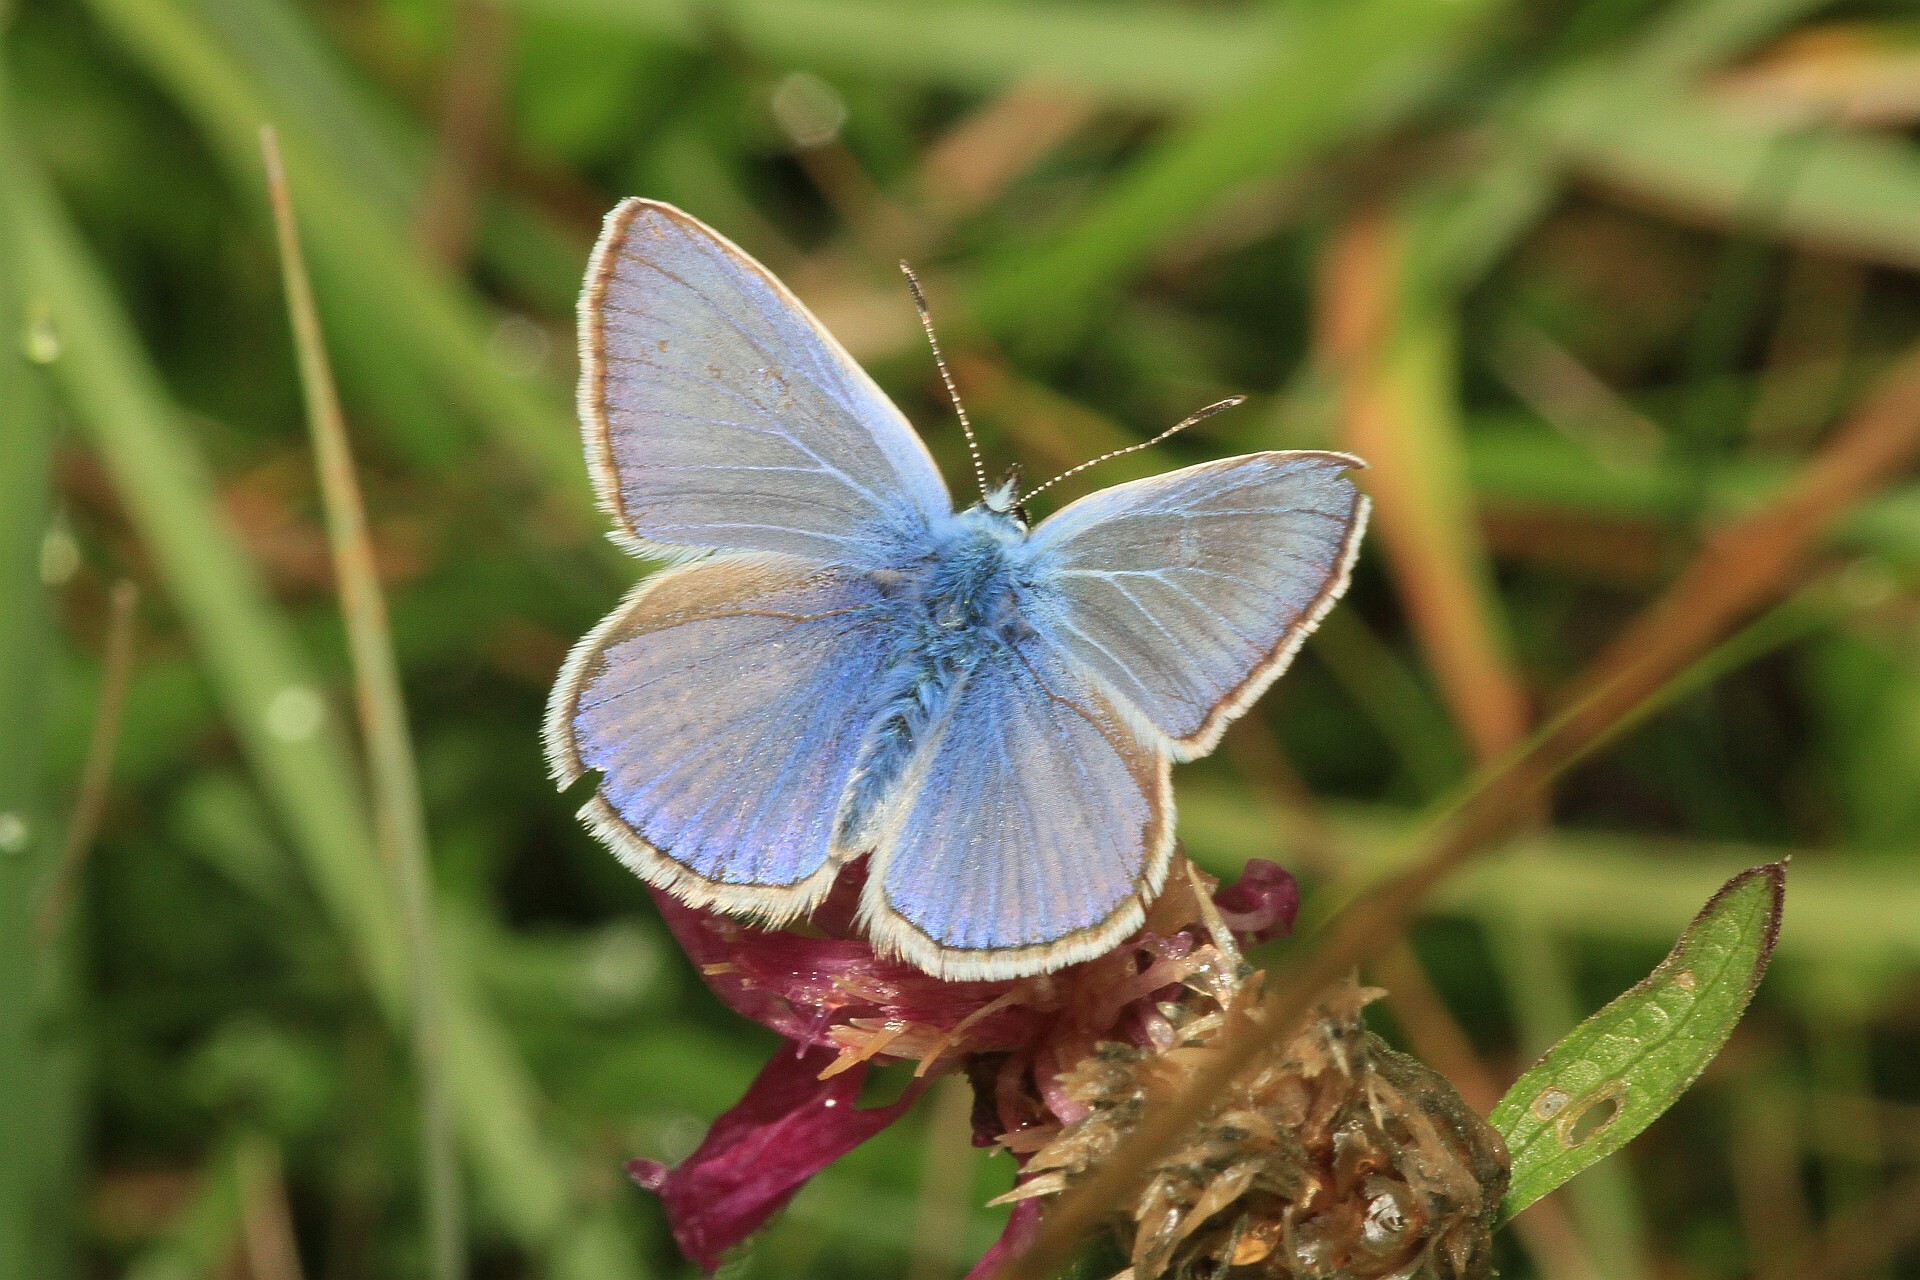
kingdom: Animalia
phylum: Arthropoda
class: Insecta
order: Lepidoptera
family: Lycaenidae
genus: Polyommatus
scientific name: Polyommatus icarus
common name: Common blue
